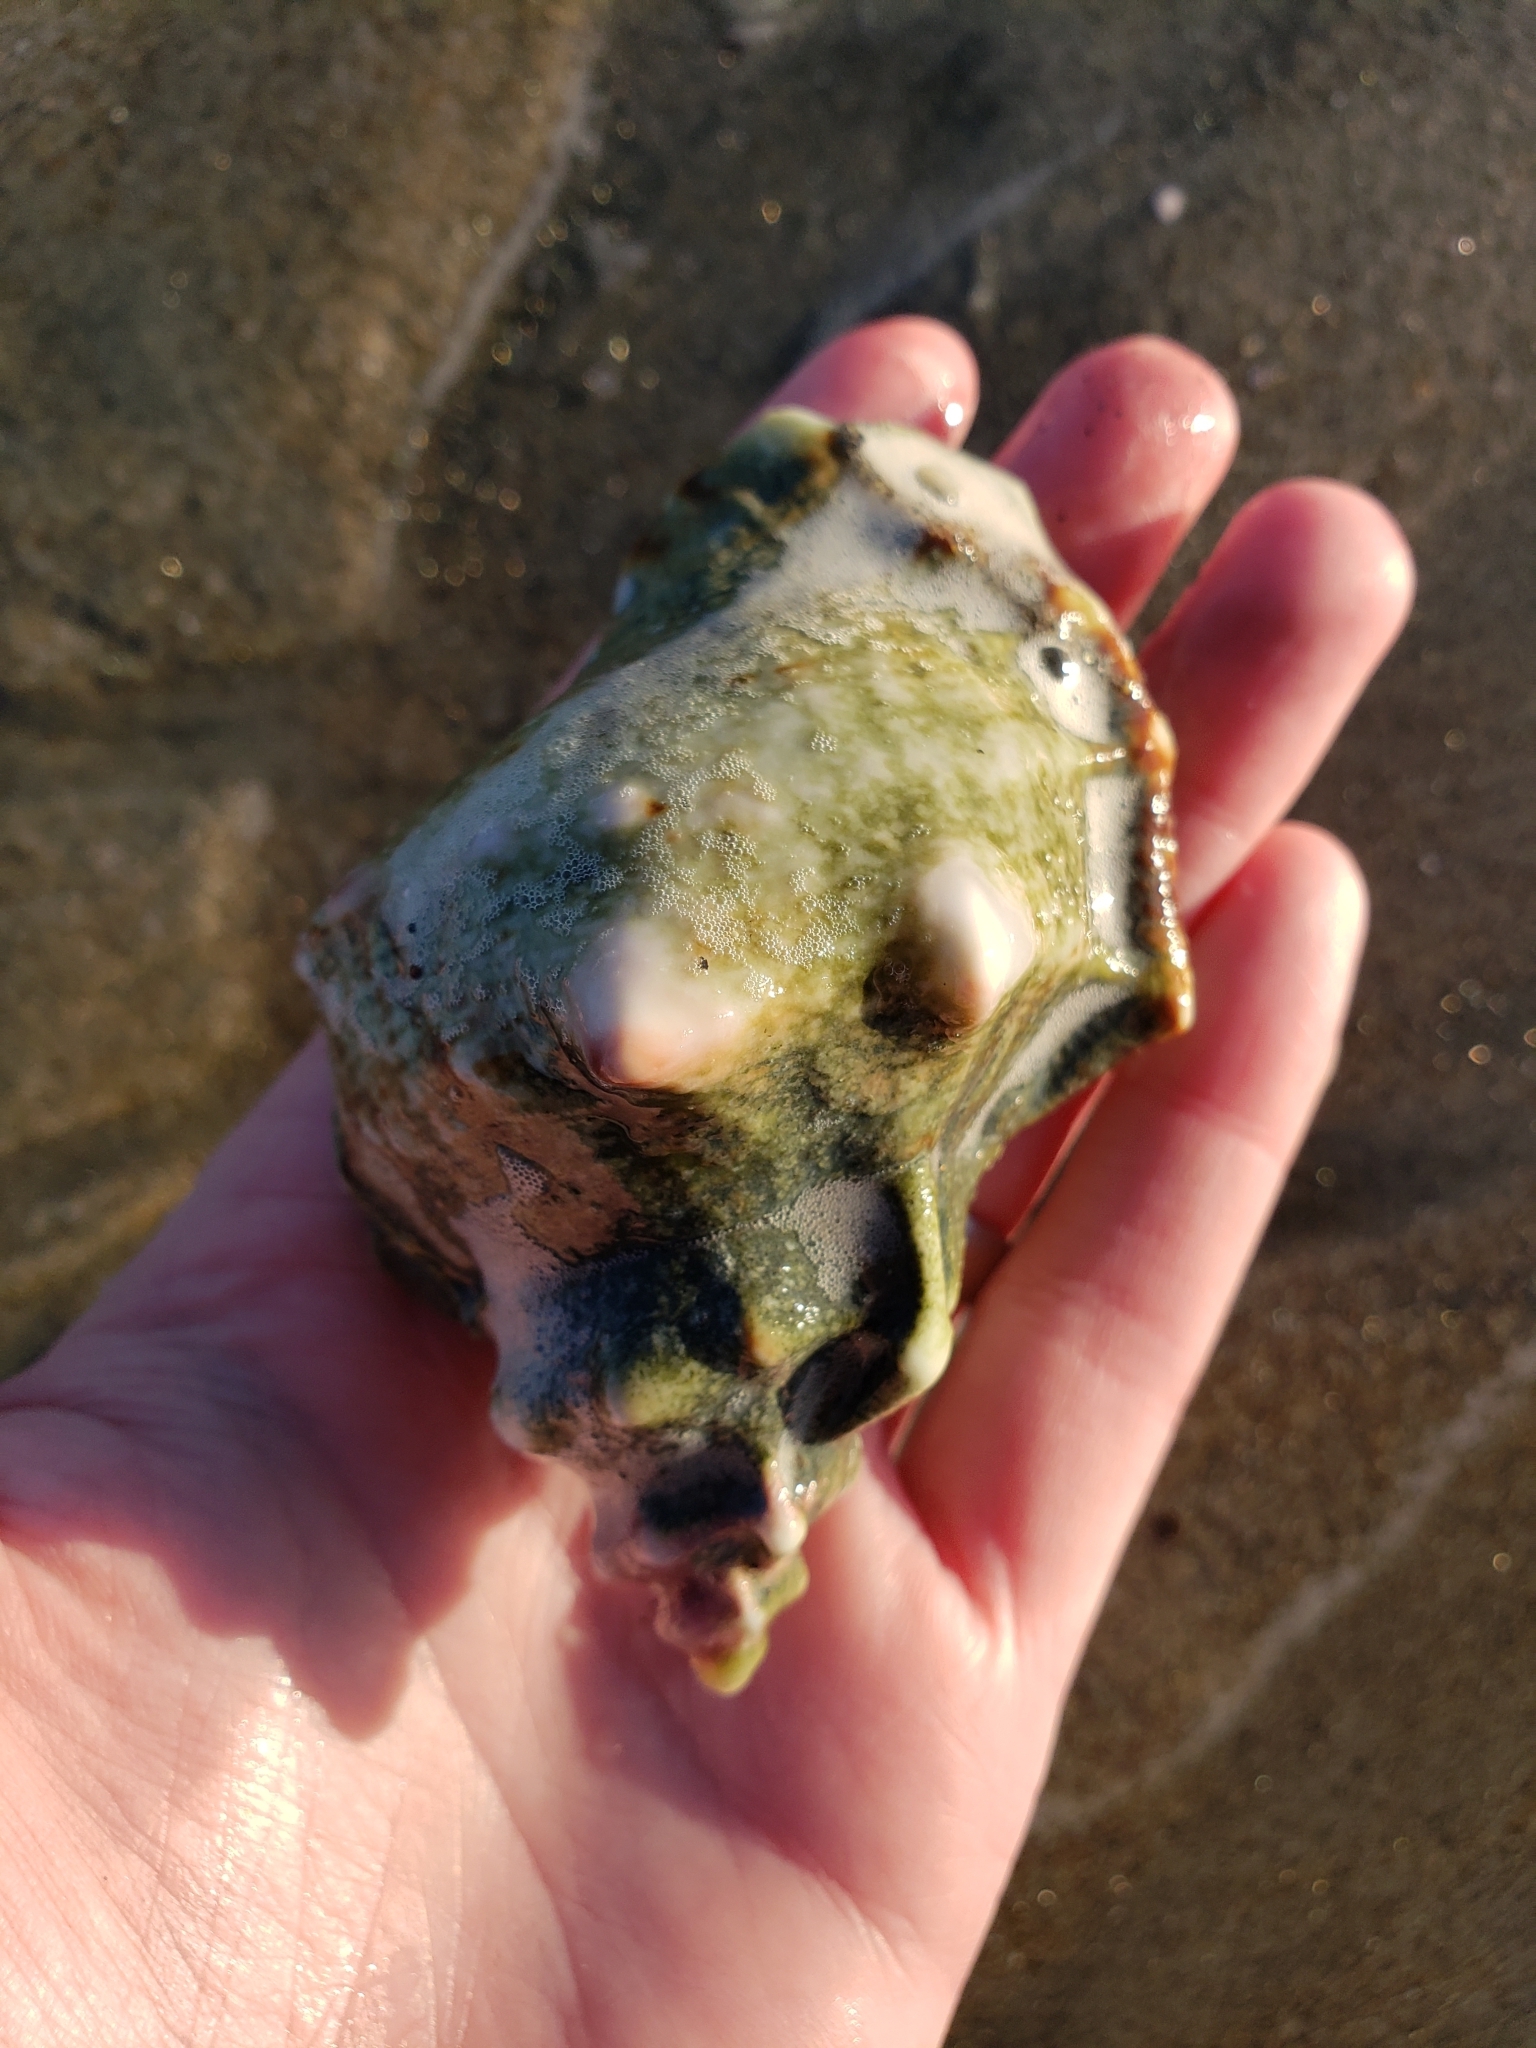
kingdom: Animalia
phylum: Mollusca
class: Gastropoda
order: Littorinimorpha
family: Bursidae
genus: Crossata
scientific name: Crossata californica
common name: California frogsnail
